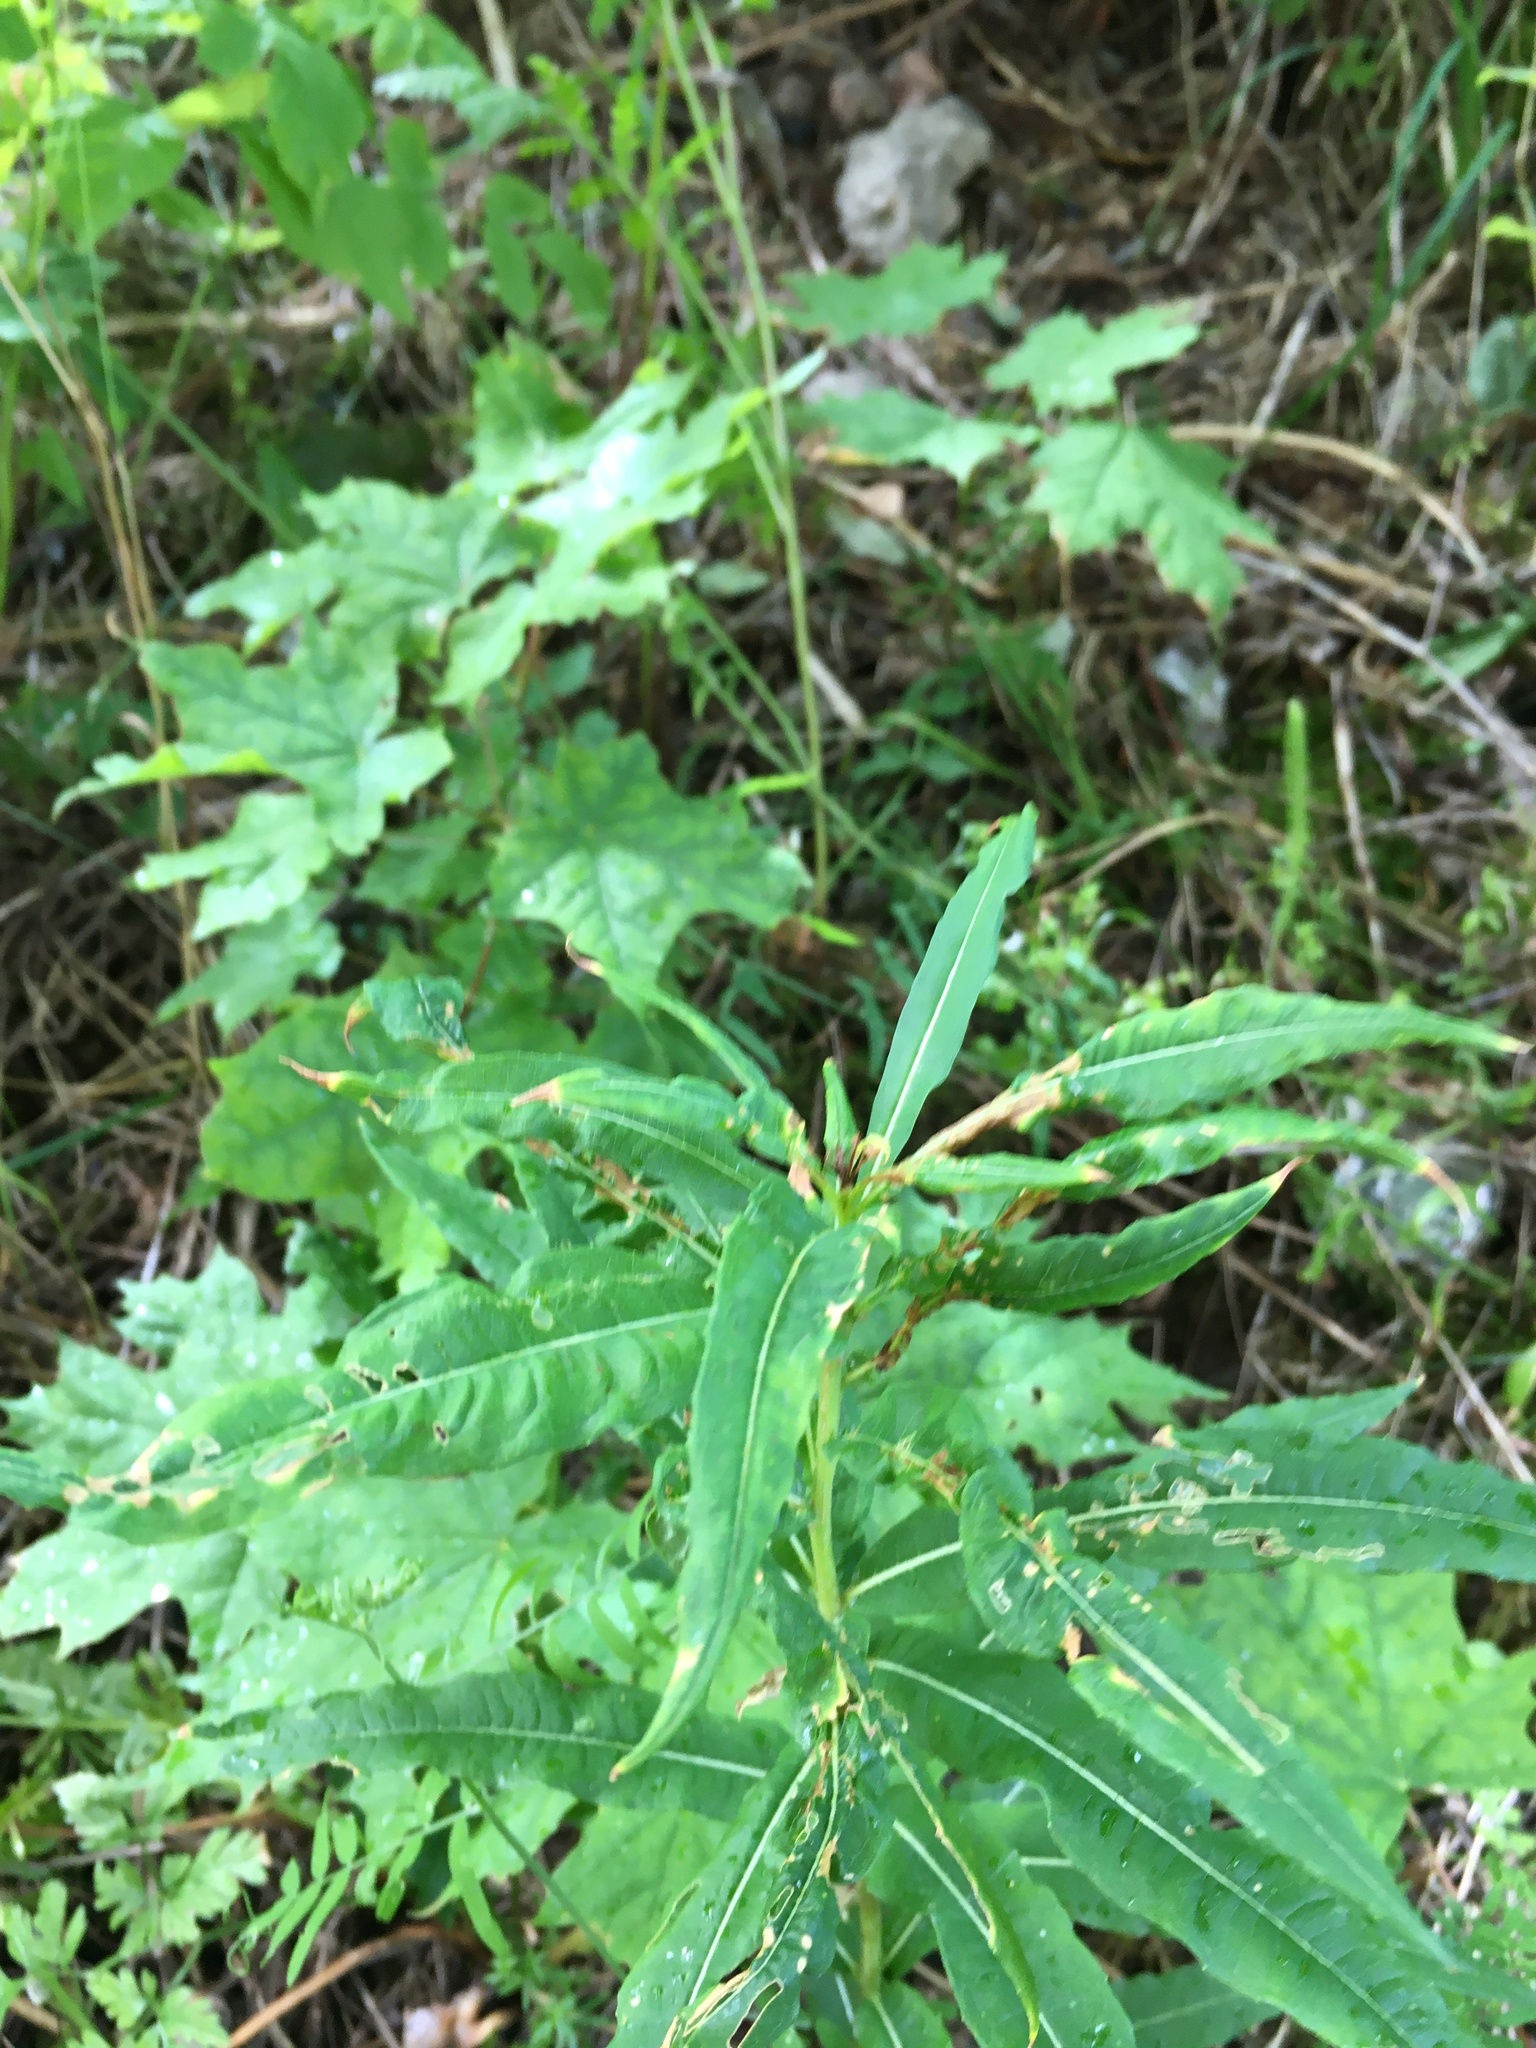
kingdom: Plantae
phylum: Tracheophyta
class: Magnoliopsida
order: Myrtales
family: Onagraceae
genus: Chamaenerion
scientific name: Chamaenerion angustifolium
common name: Fireweed
